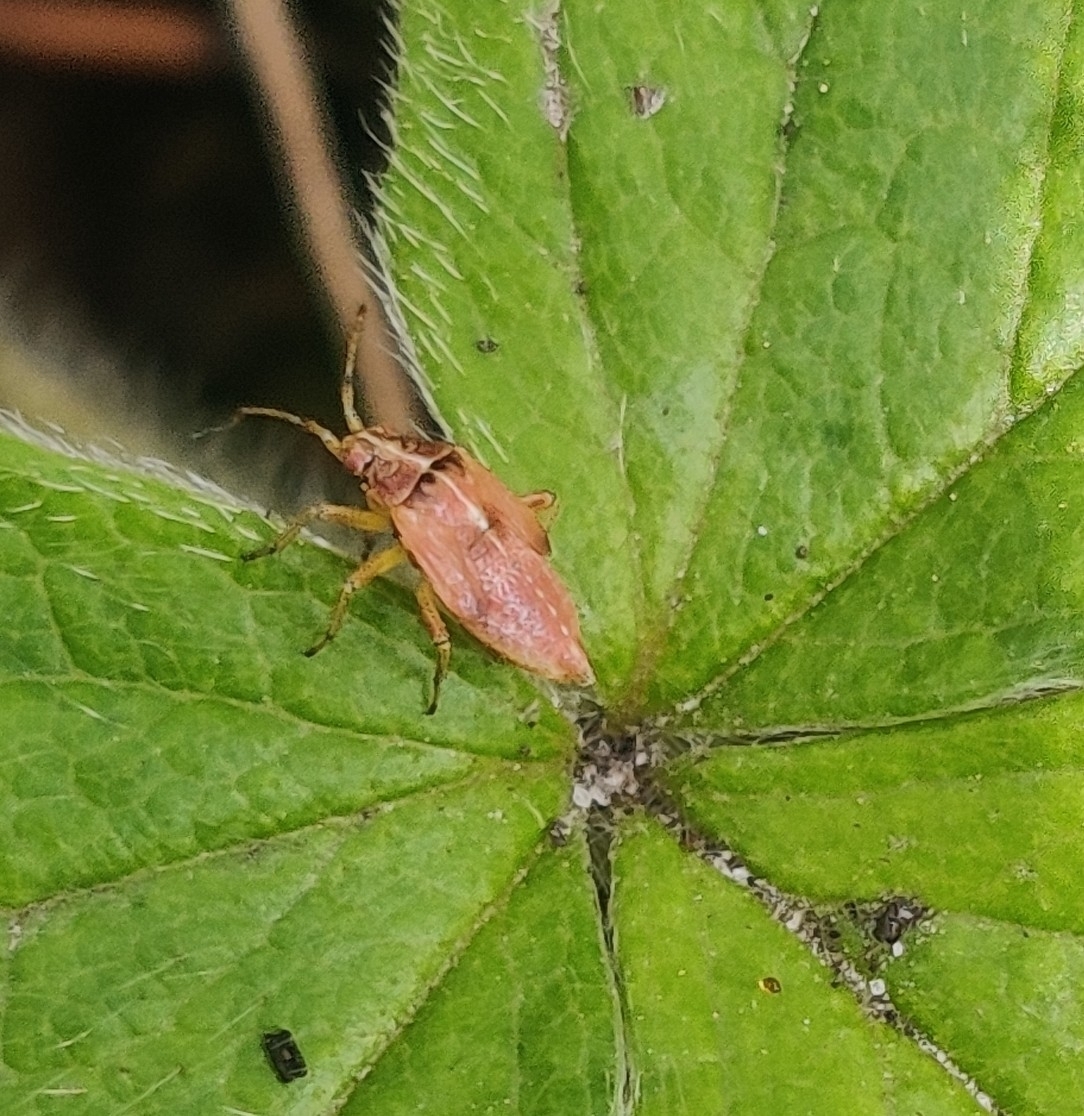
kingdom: Animalia
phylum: Arthropoda
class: Insecta
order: Hemiptera
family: Miridae
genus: Harpocera
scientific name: Harpocera thoracica
